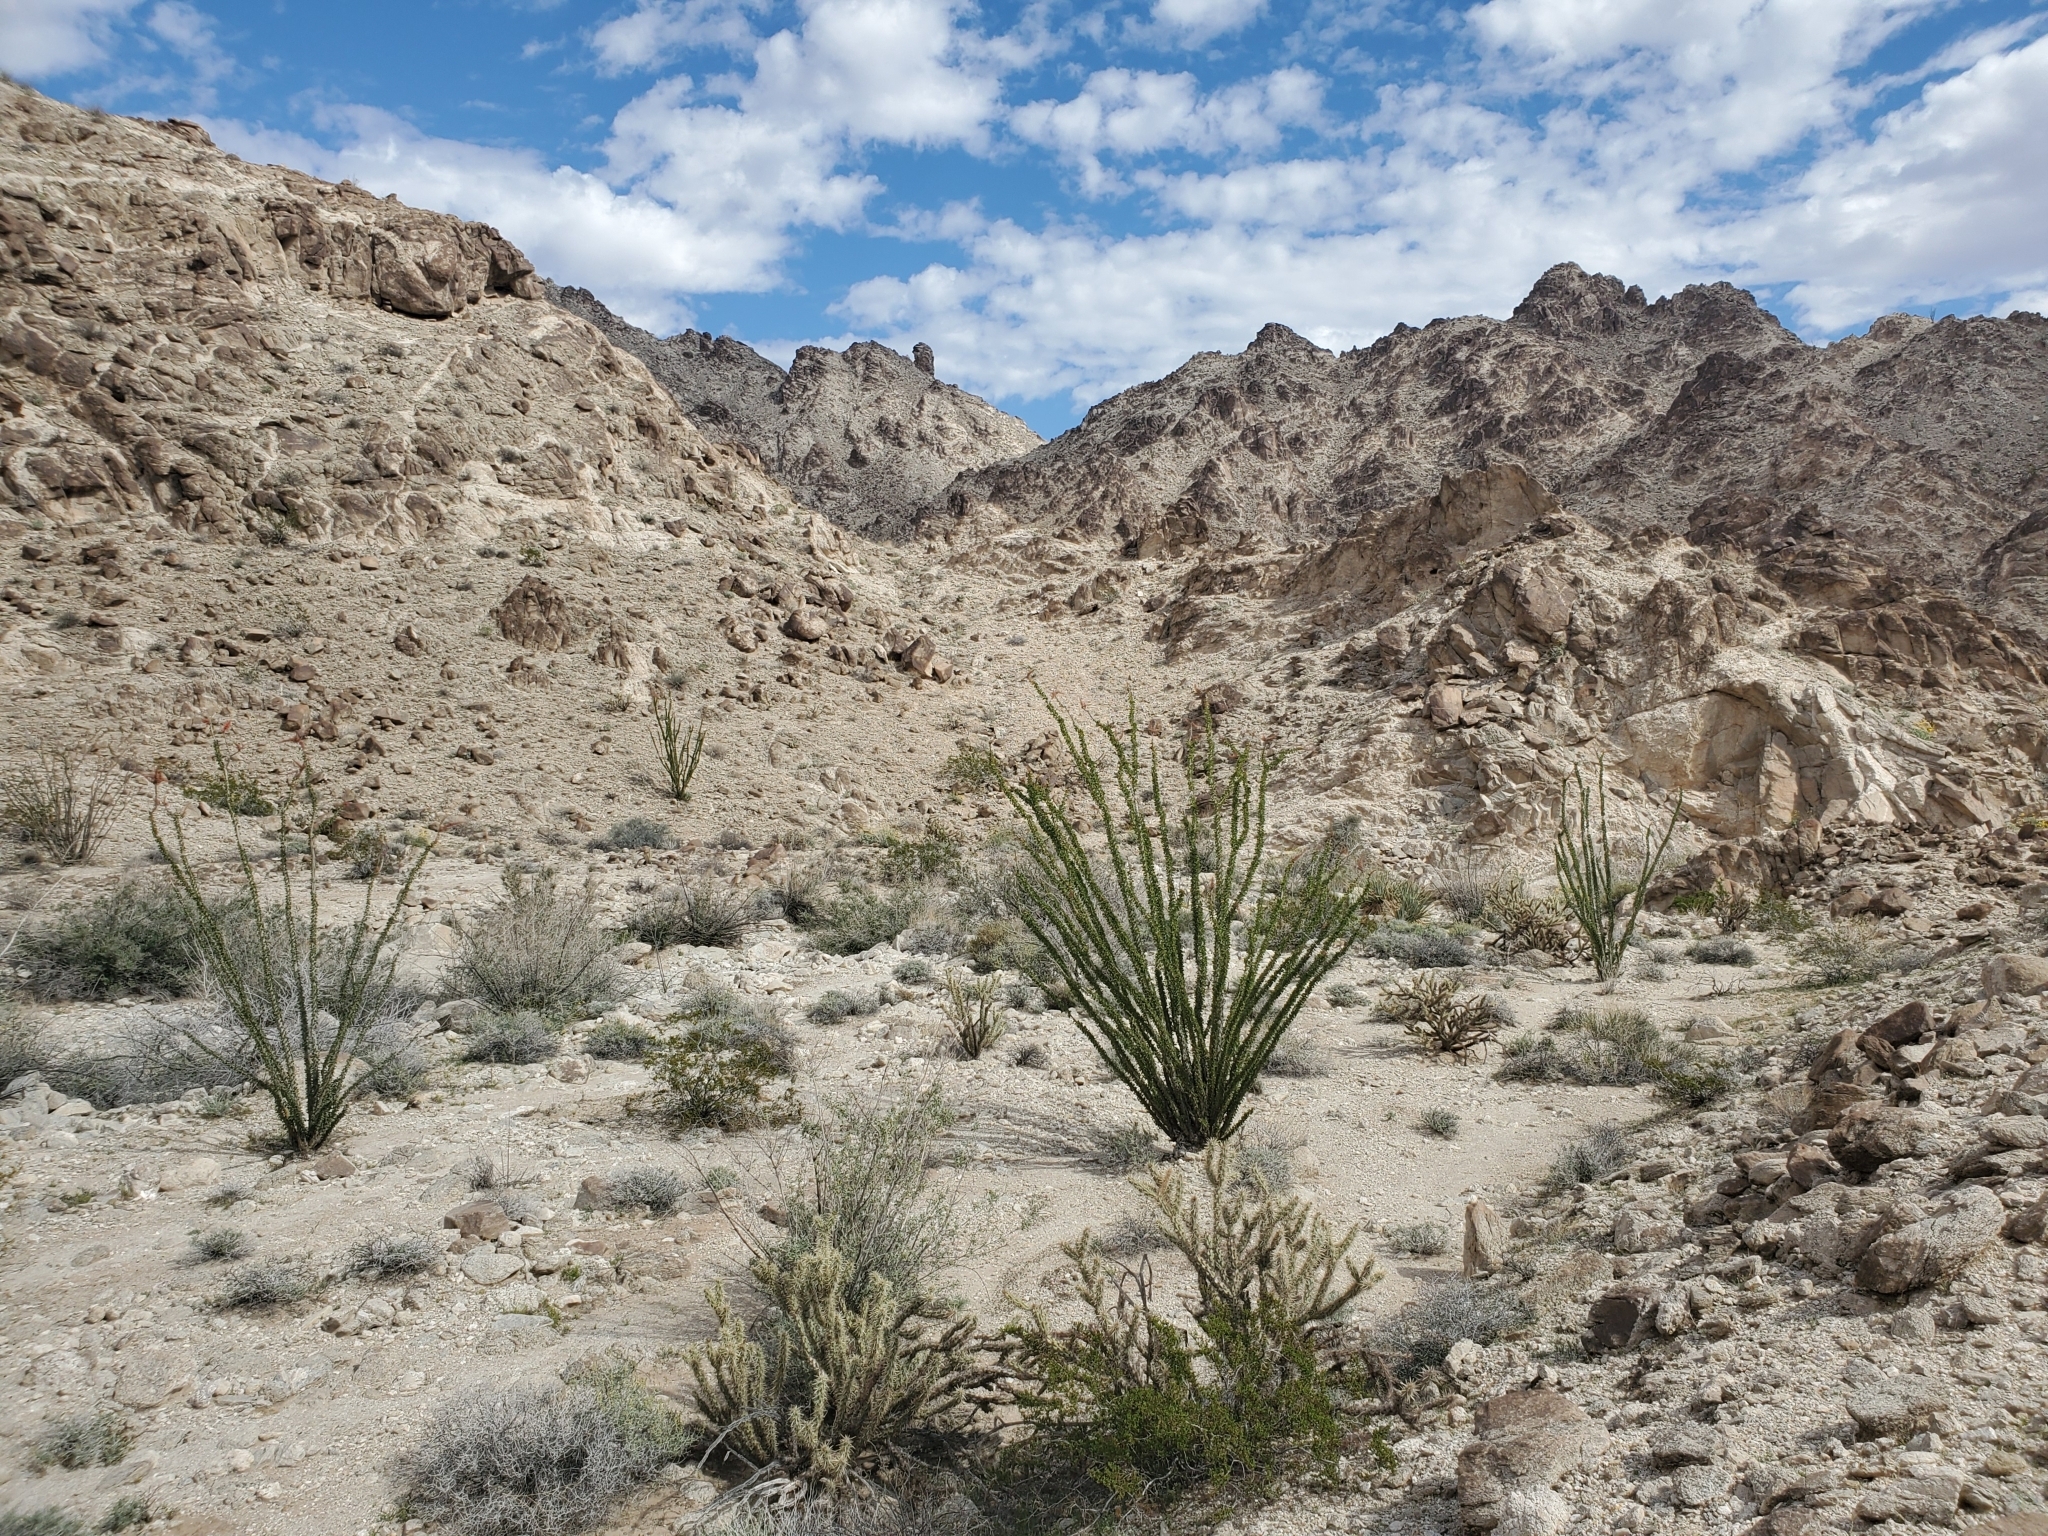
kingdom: Plantae
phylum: Tracheophyta
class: Magnoliopsida
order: Ericales
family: Fouquieriaceae
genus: Fouquieria
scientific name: Fouquieria splendens
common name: Vine-cactus
